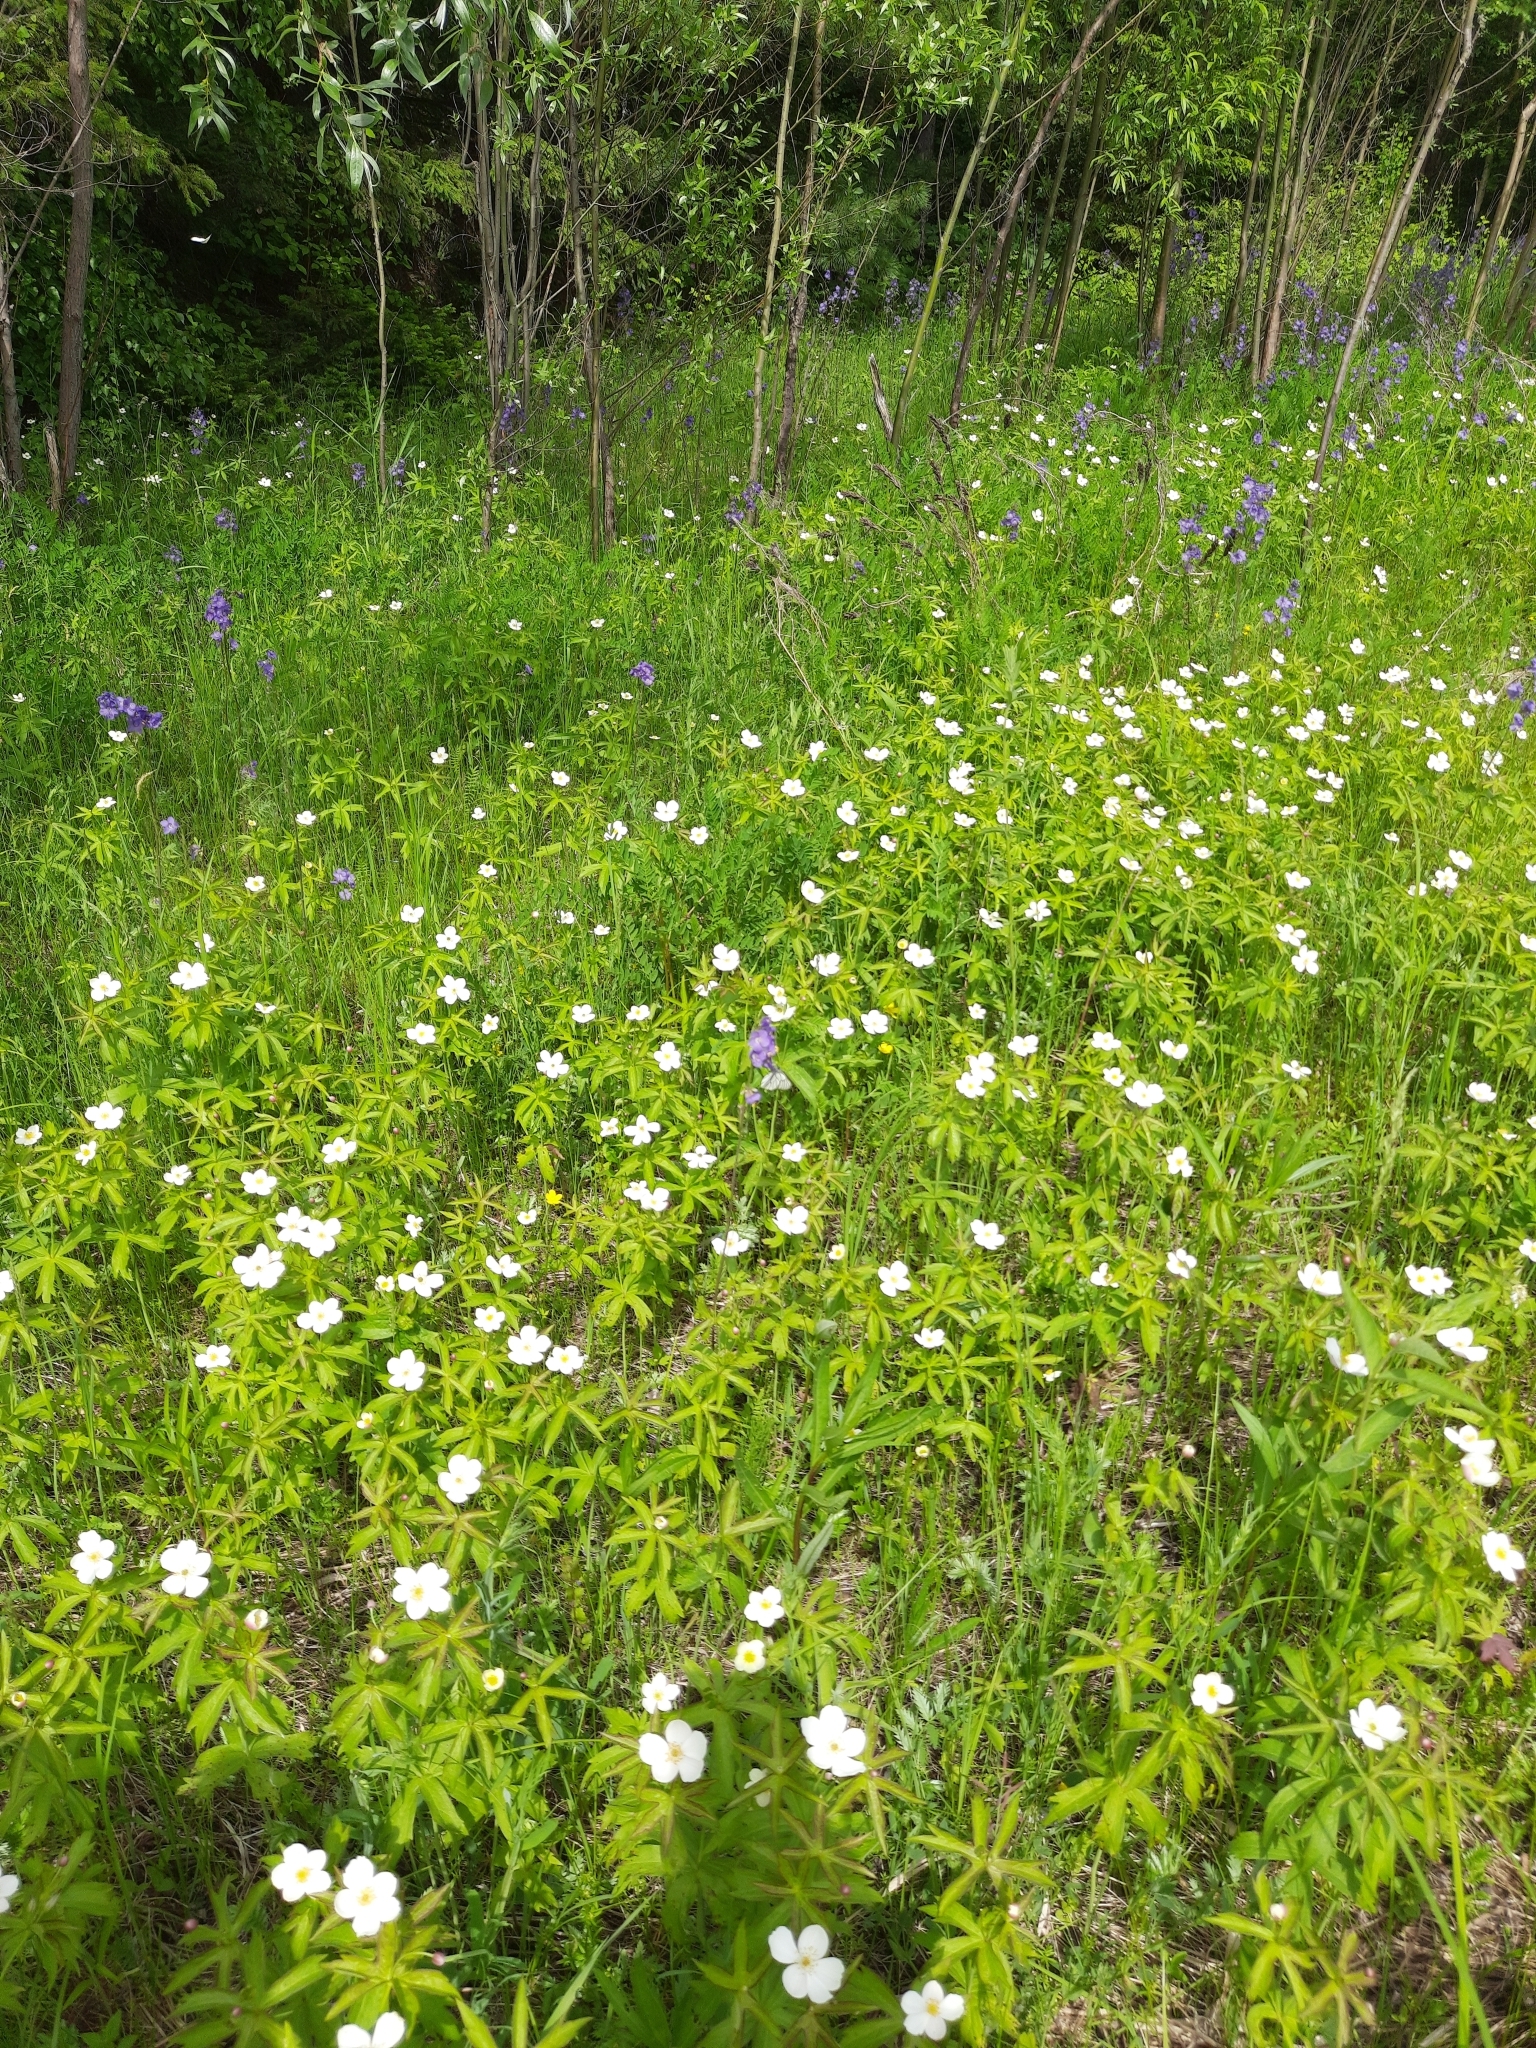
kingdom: Plantae
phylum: Tracheophyta
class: Magnoliopsida
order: Ranunculales
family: Ranunculaceae
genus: Anemonastrum
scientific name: Anemonastrum dichotomum
